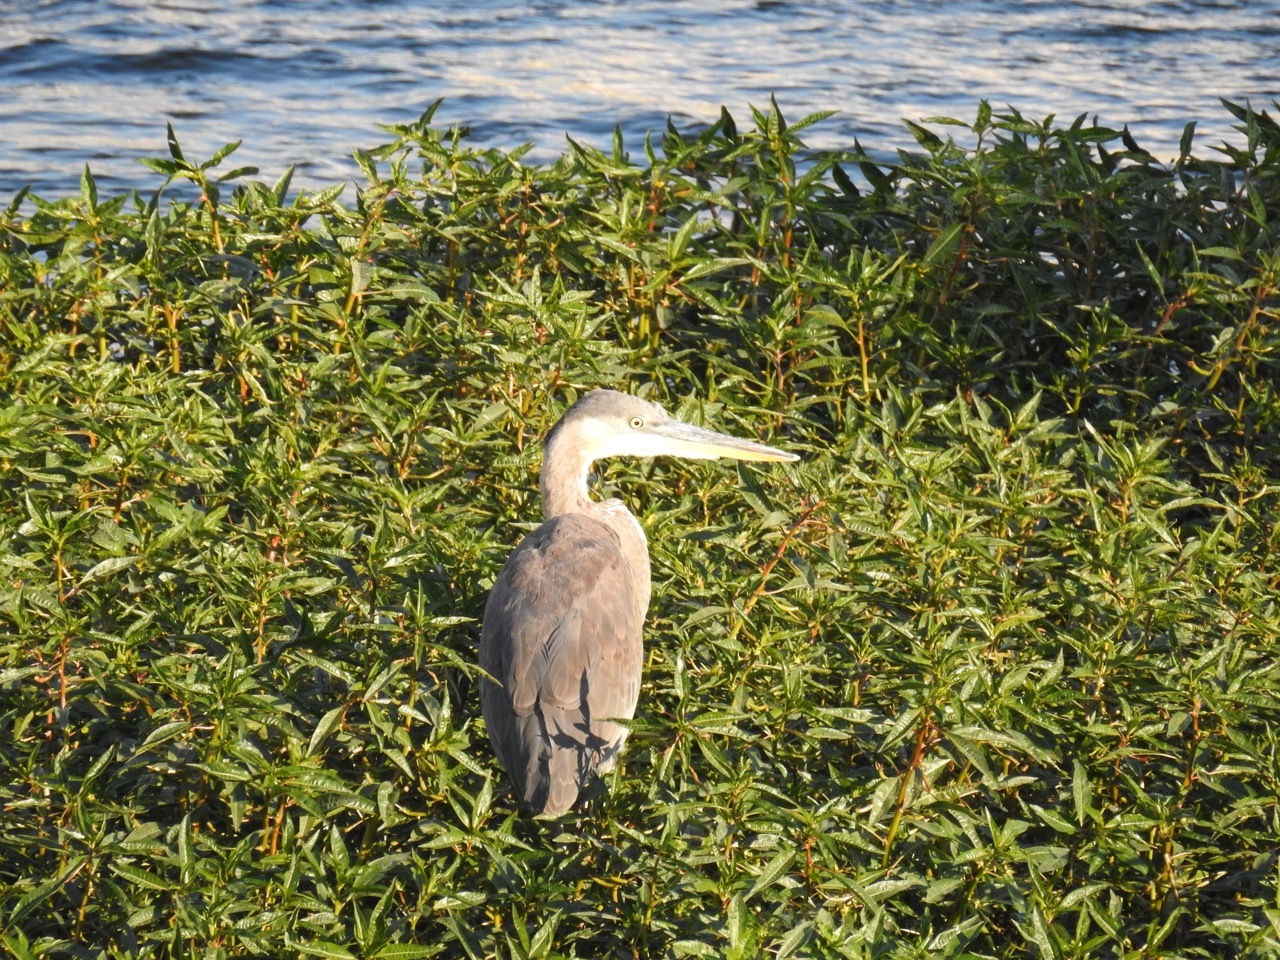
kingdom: Animalia
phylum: Chordata
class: Aves
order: Pelecaniformes
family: Ardeidae
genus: Ardea
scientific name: Ardea herodias
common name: Great blue heron
